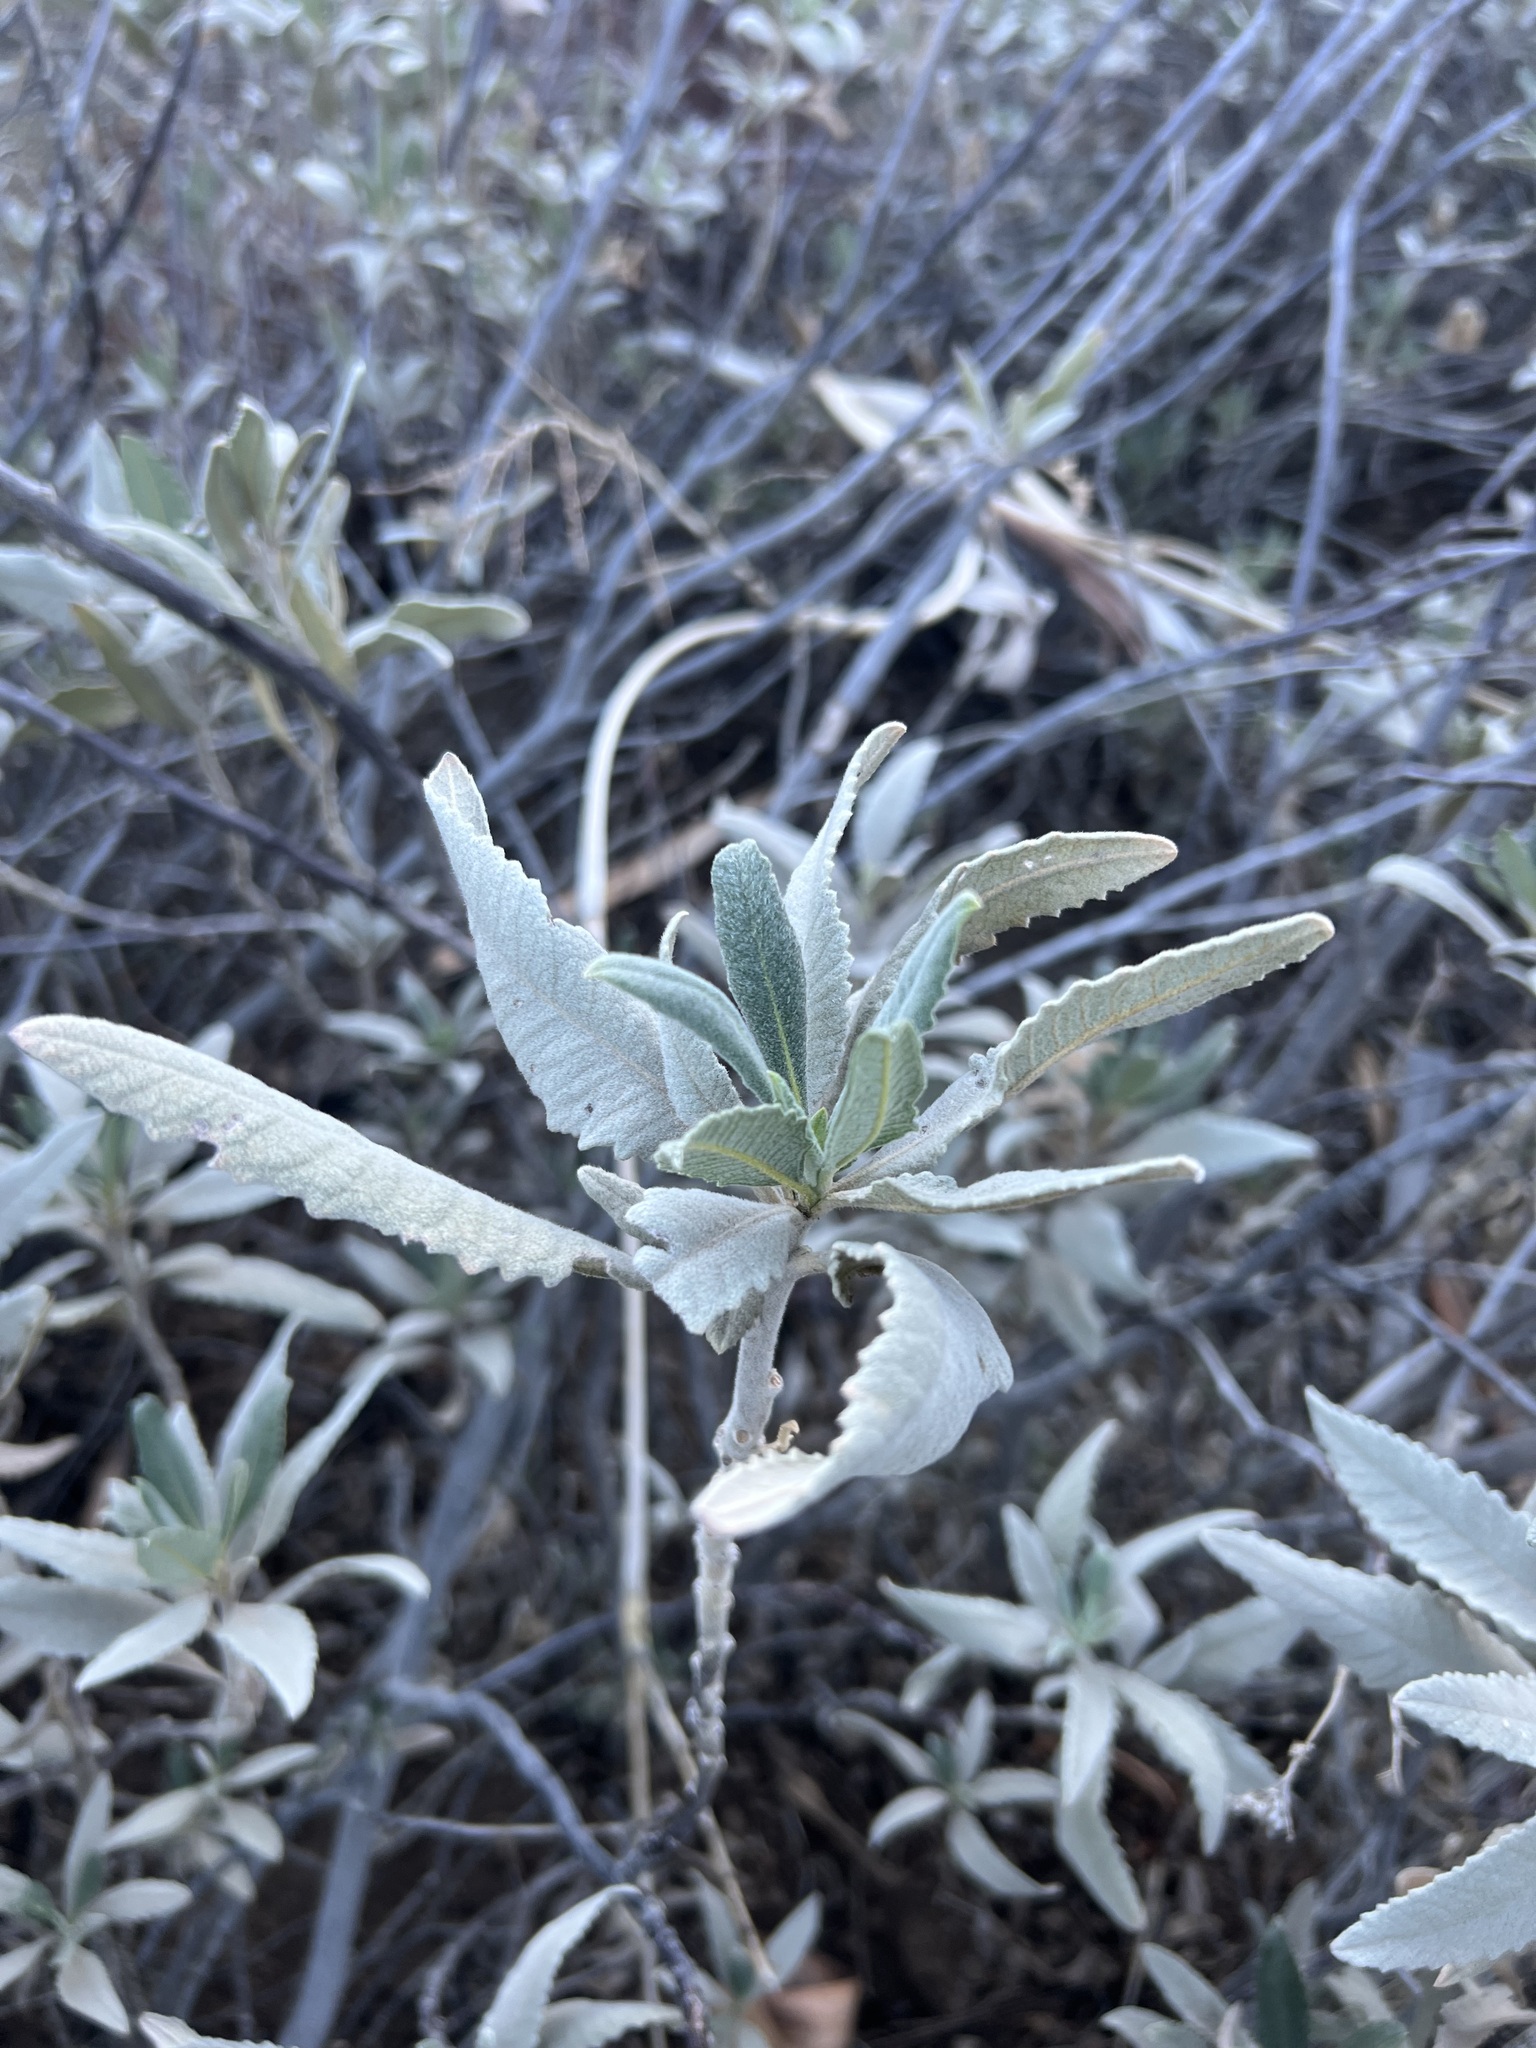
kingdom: Plantae
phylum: Tracheophyta
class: Magnoliopsida
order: Boraginales
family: Namaceae
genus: Eriodictyon
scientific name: Eriodictyon crassifolium
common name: Thick-leaf yerba-santa
